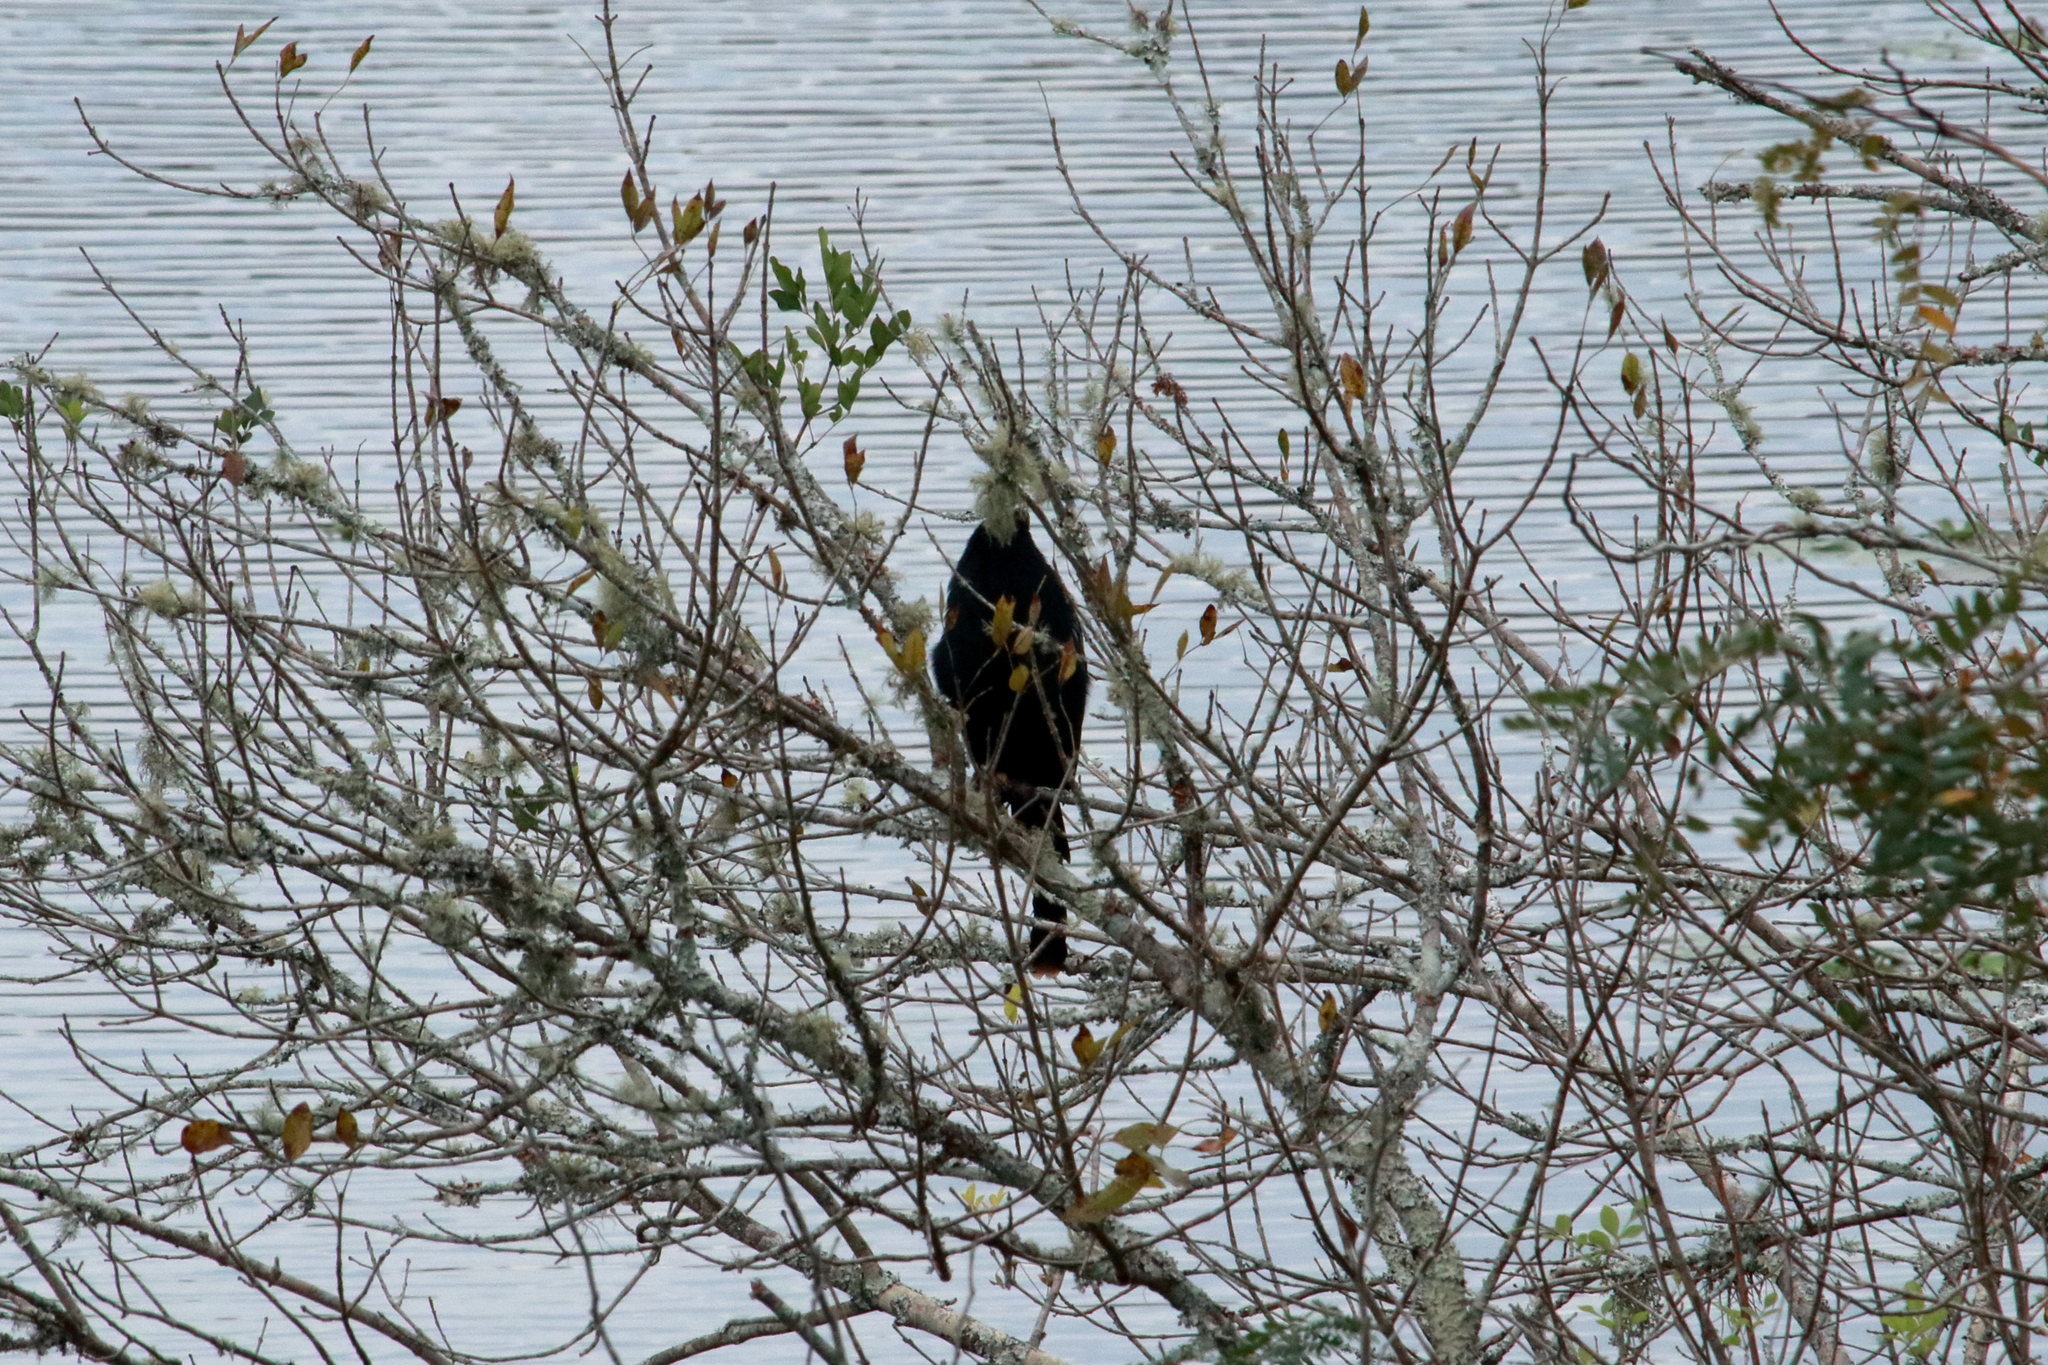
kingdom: Animalia
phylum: Chordata
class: Aves
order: Suliformes
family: Anhingidae
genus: Anhinga
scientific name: Anhinga anhinga
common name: Anhinga
